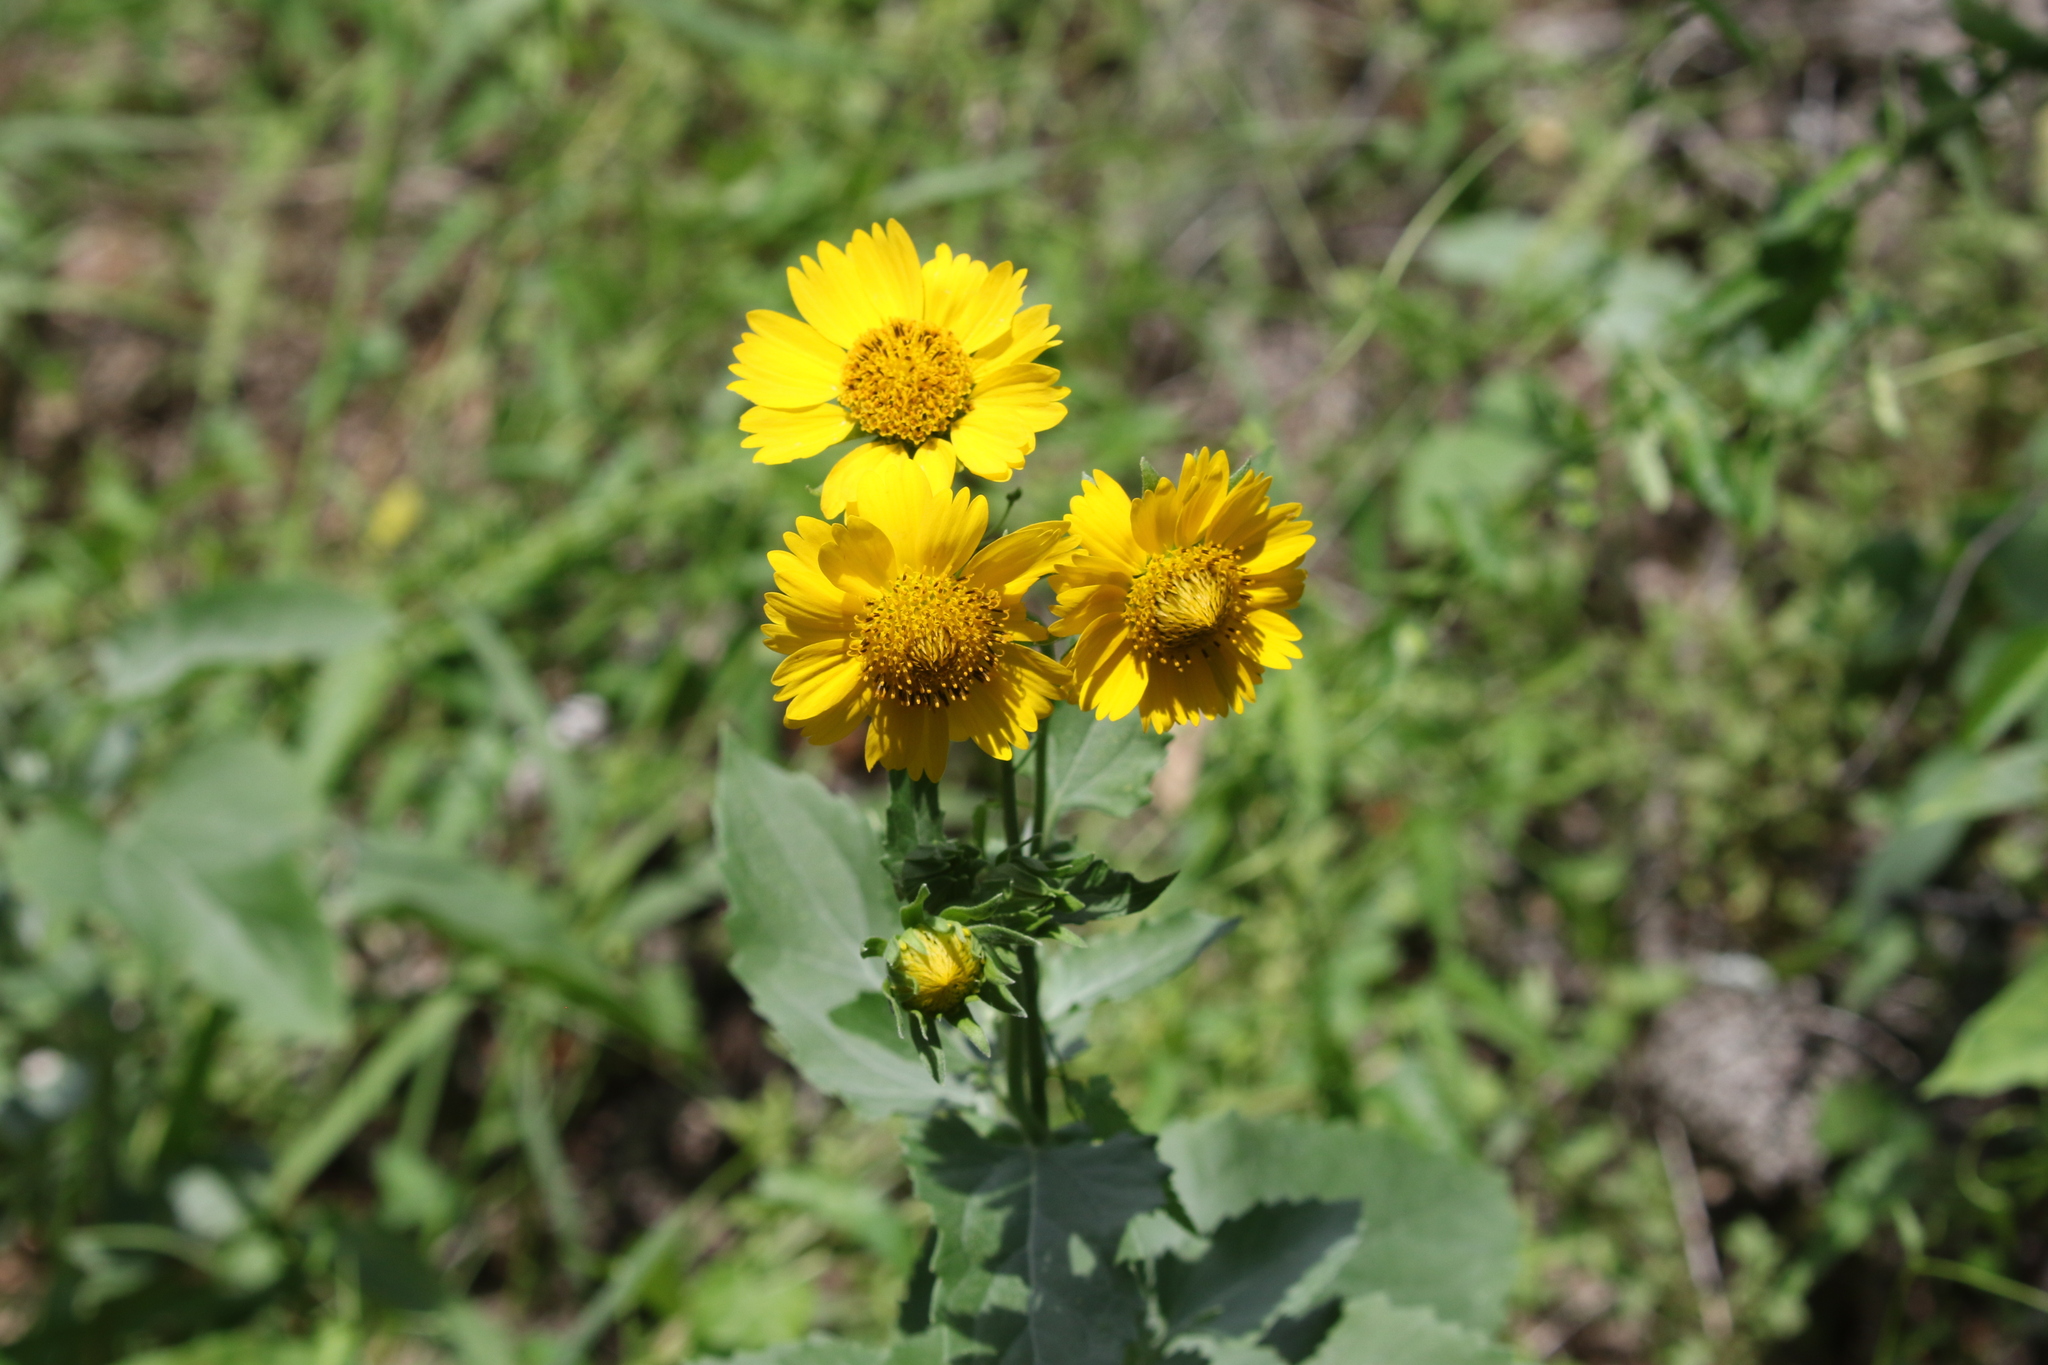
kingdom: Plantae
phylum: Tracheophyta
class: Magnoliopsida
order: Asterales
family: Asteraceae
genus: Verbesina
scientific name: Verbesina encelioides
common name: Golden crownbeard
